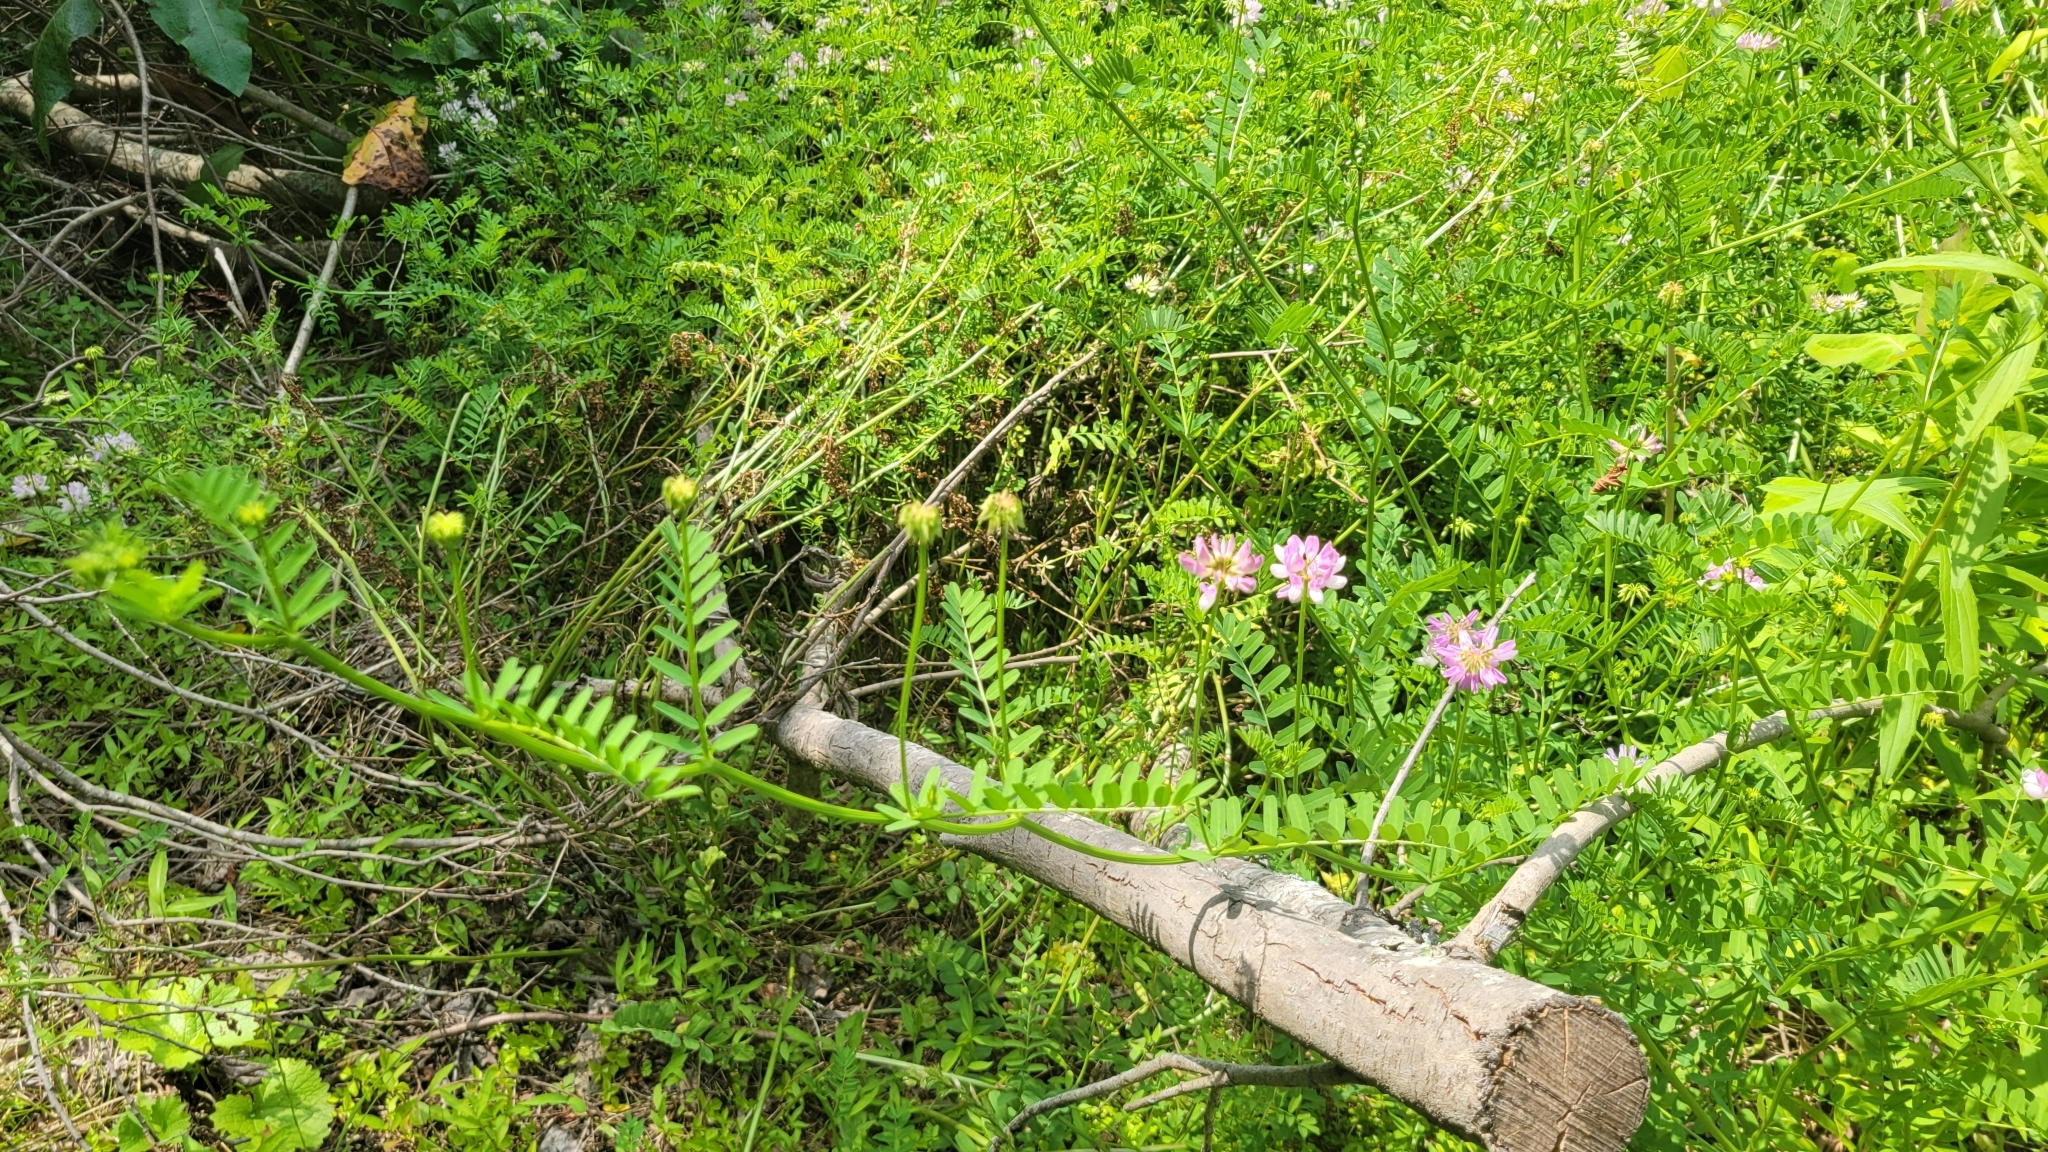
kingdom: Plantae
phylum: Tracheophyta
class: Magnoliopsida
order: Fabales
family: Fabaceae
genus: Coronilla
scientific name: Coronilla varia
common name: Crownvetch
